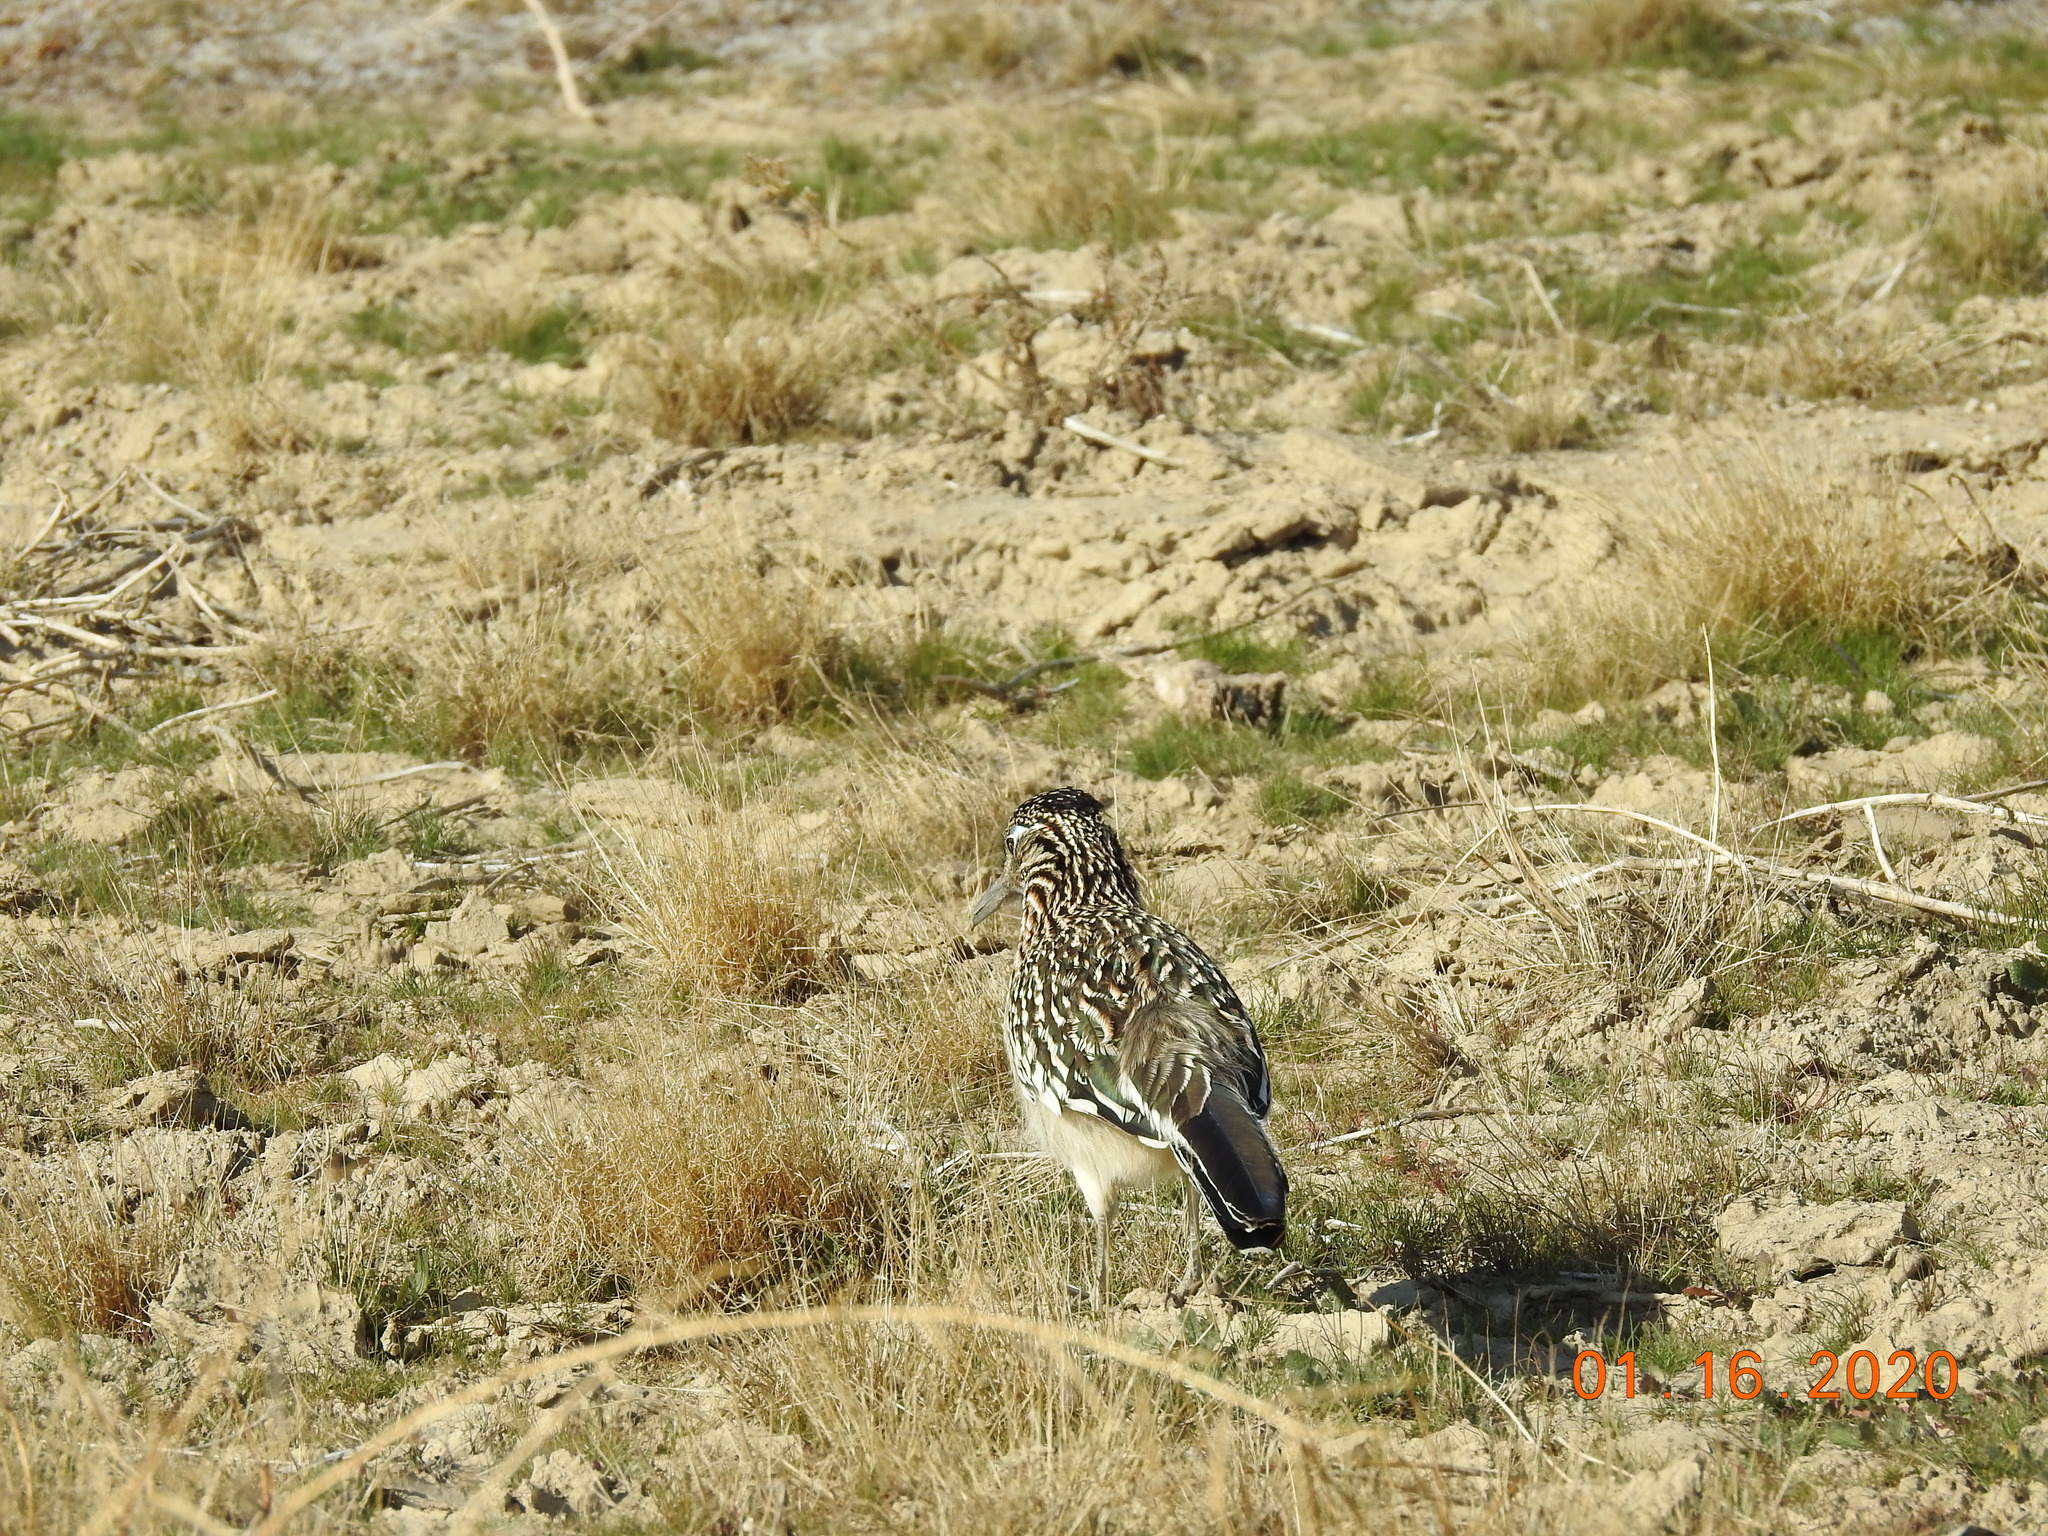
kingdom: Animalia
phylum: Chordata
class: Aves
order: Cuculiformes
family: Cuculidae
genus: Geococcyx
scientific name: Geococcyx californianus
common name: Greater roadrunner
